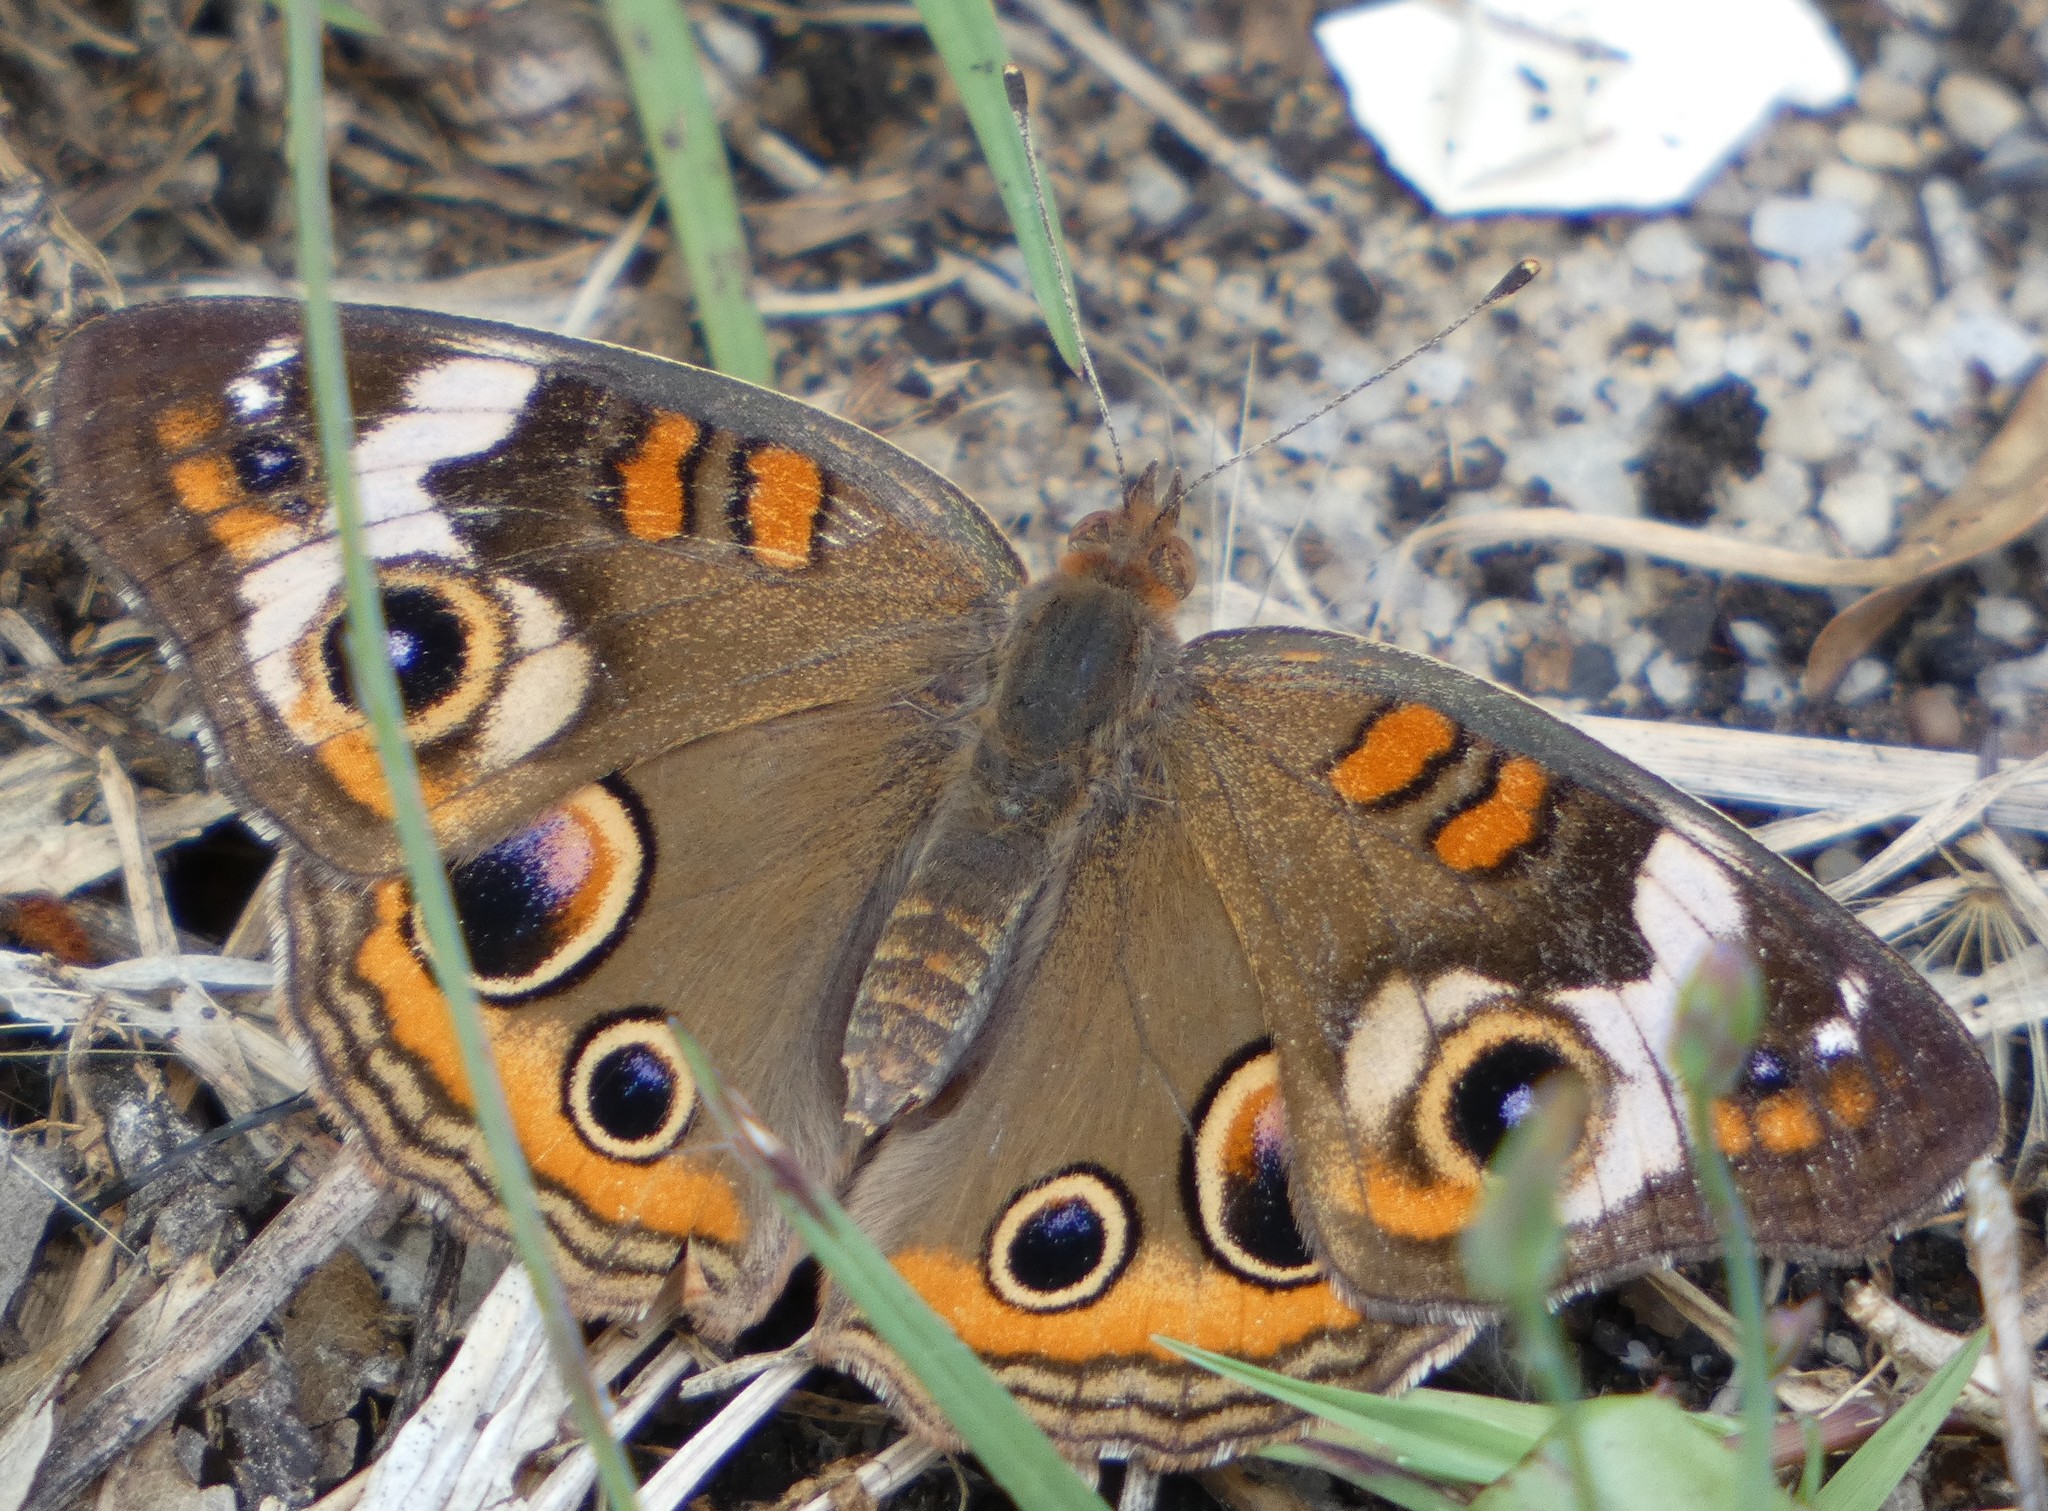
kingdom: Animalia
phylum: Arthropoda
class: Insecta
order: Lepidoptera
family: Nymphalidae
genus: Junonia
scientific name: Junonia coenia
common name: Common buckeye
